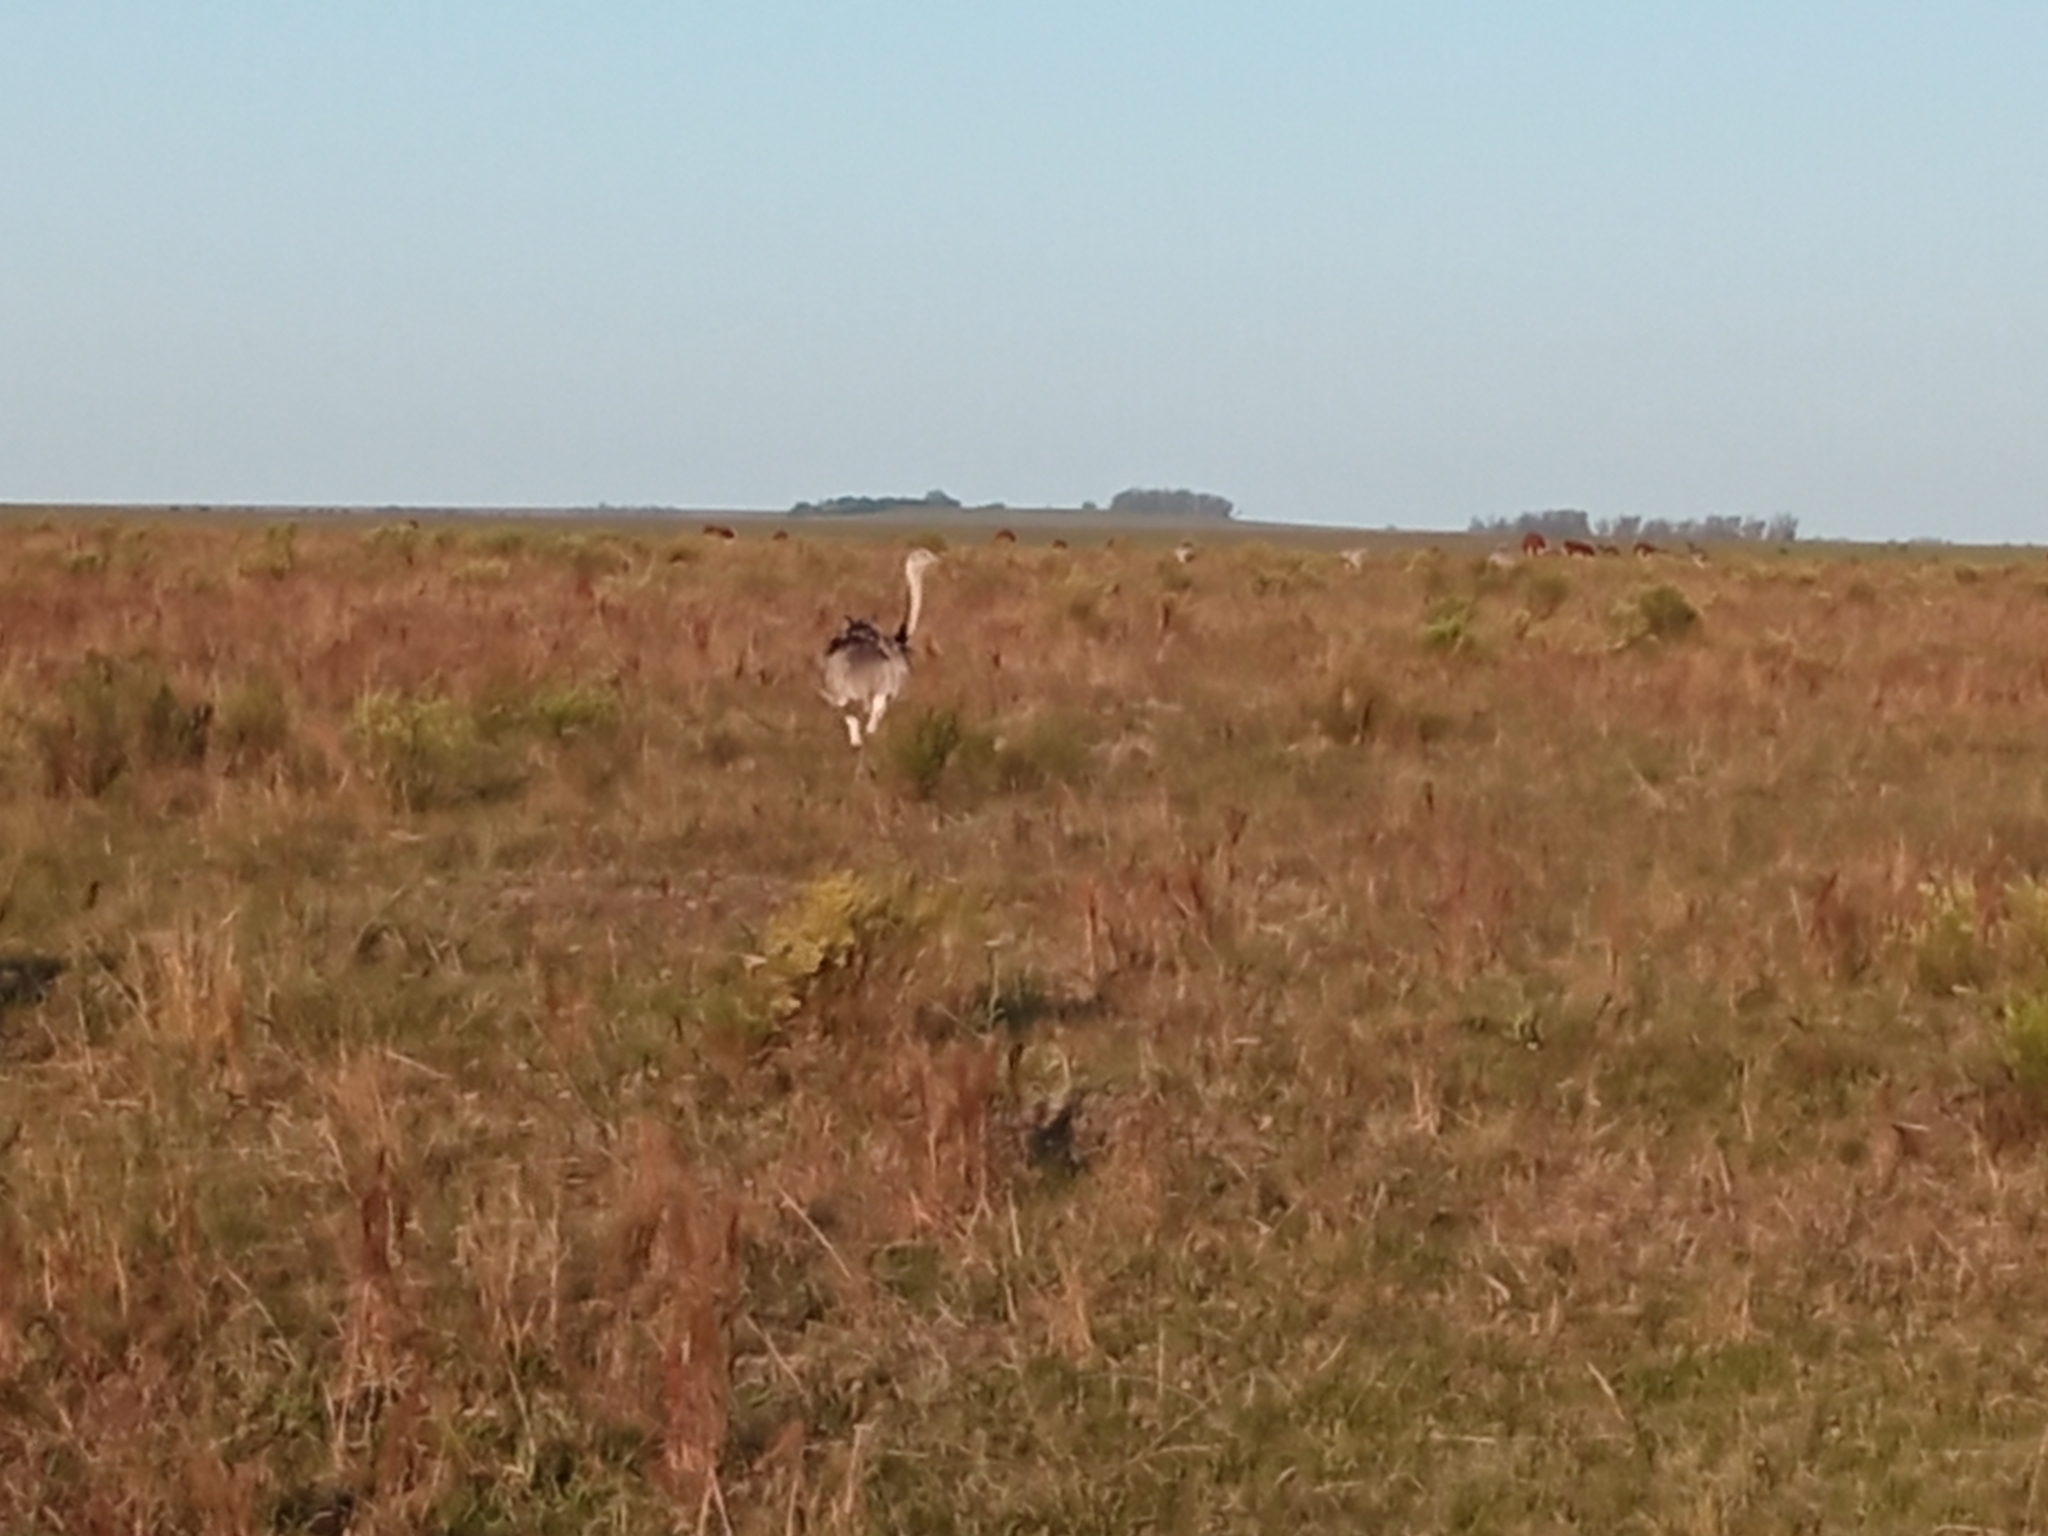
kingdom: Animalia
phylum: Chordata
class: Aves
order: Rheiformes
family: Rheidae
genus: Rhea
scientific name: Rhea americana
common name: Greater rhea
